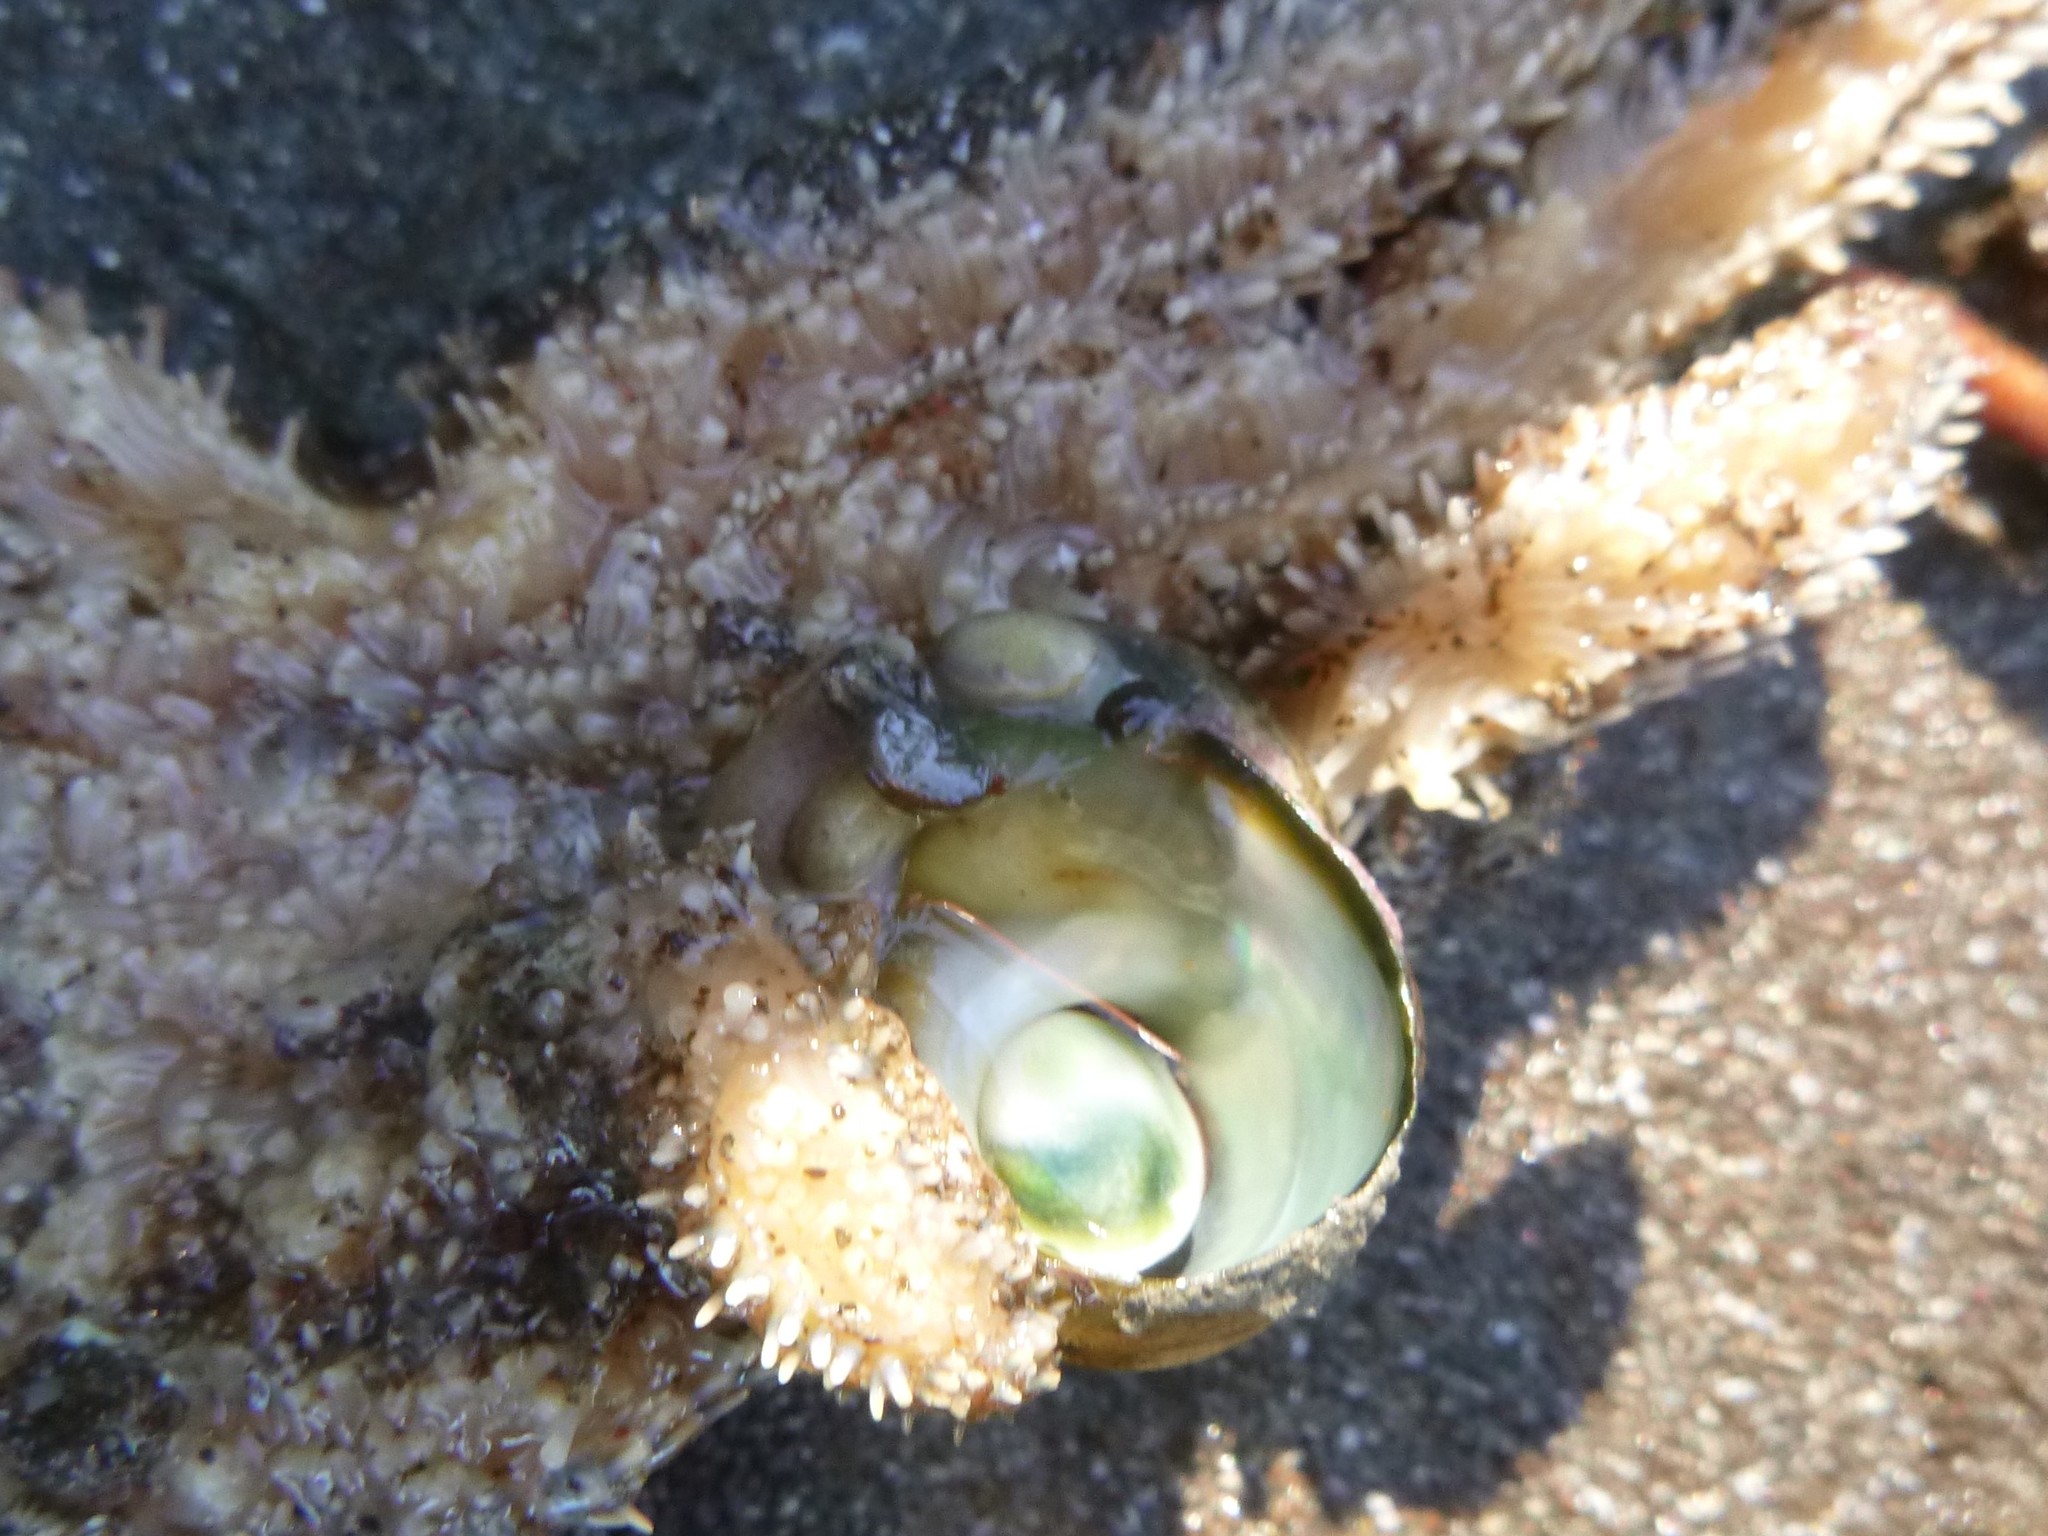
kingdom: Animalia
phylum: Mollusca
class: Gastropoda
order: Littorinimorpha
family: Calyptraeidae
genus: Maoricrypta
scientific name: Maoricrypta monoxyla
